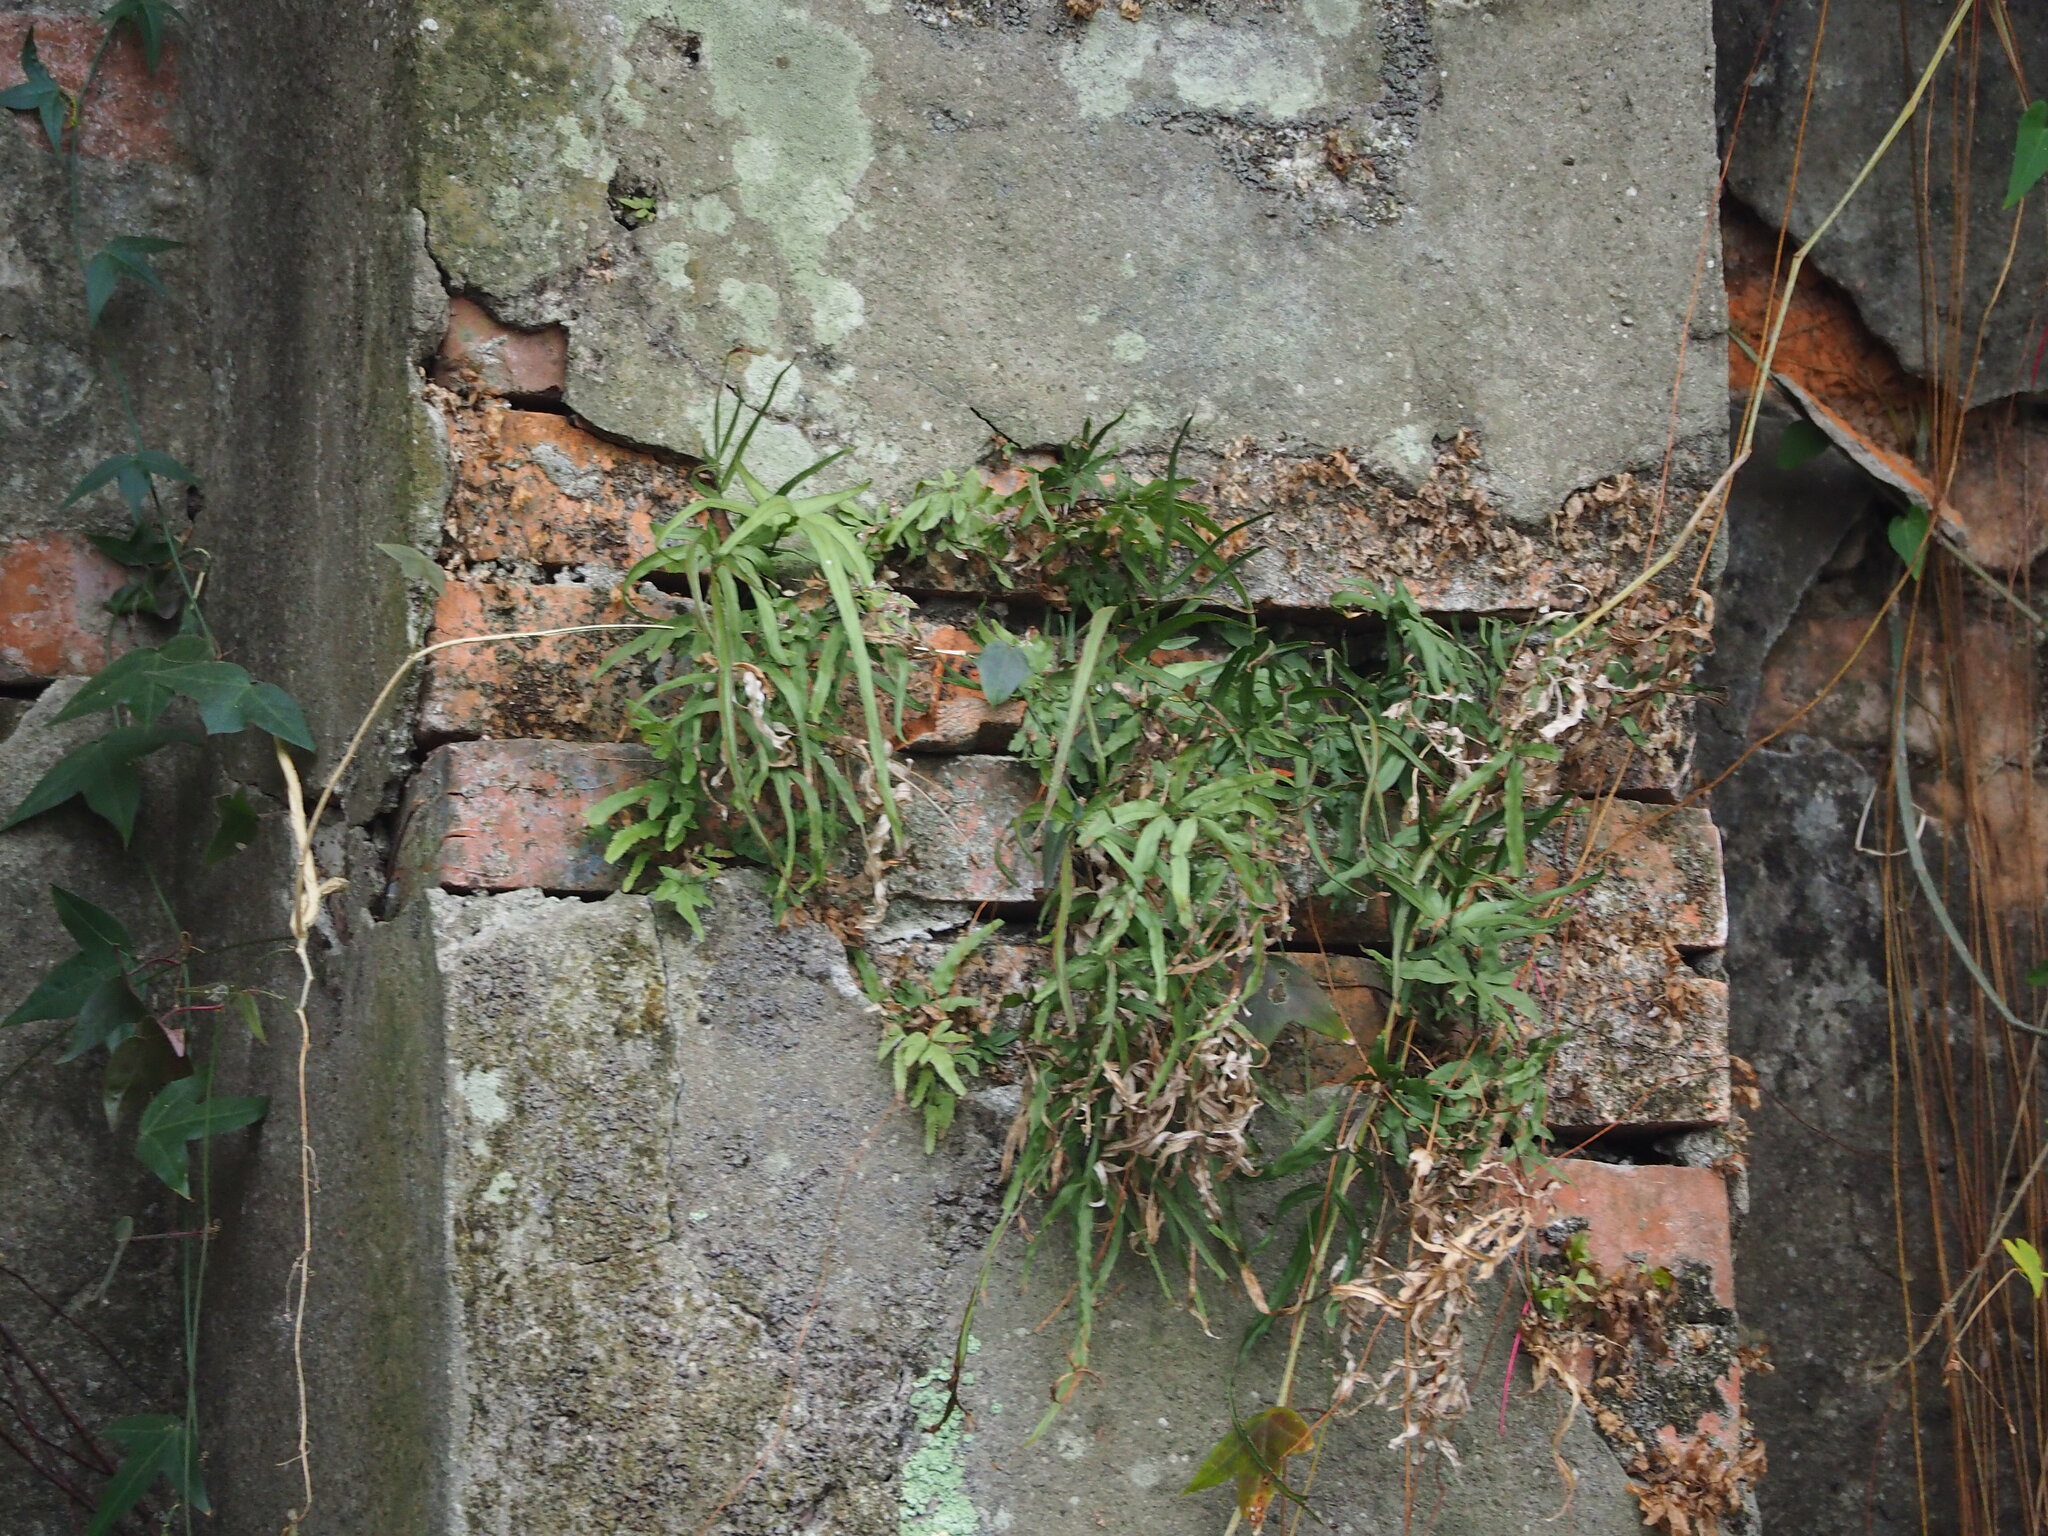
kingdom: Plantae
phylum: Tracheophyta
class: Polypodiopsida
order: Polypodiales
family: Pteridaceae
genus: Pteris
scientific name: Pteris multifida
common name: Spider brake
